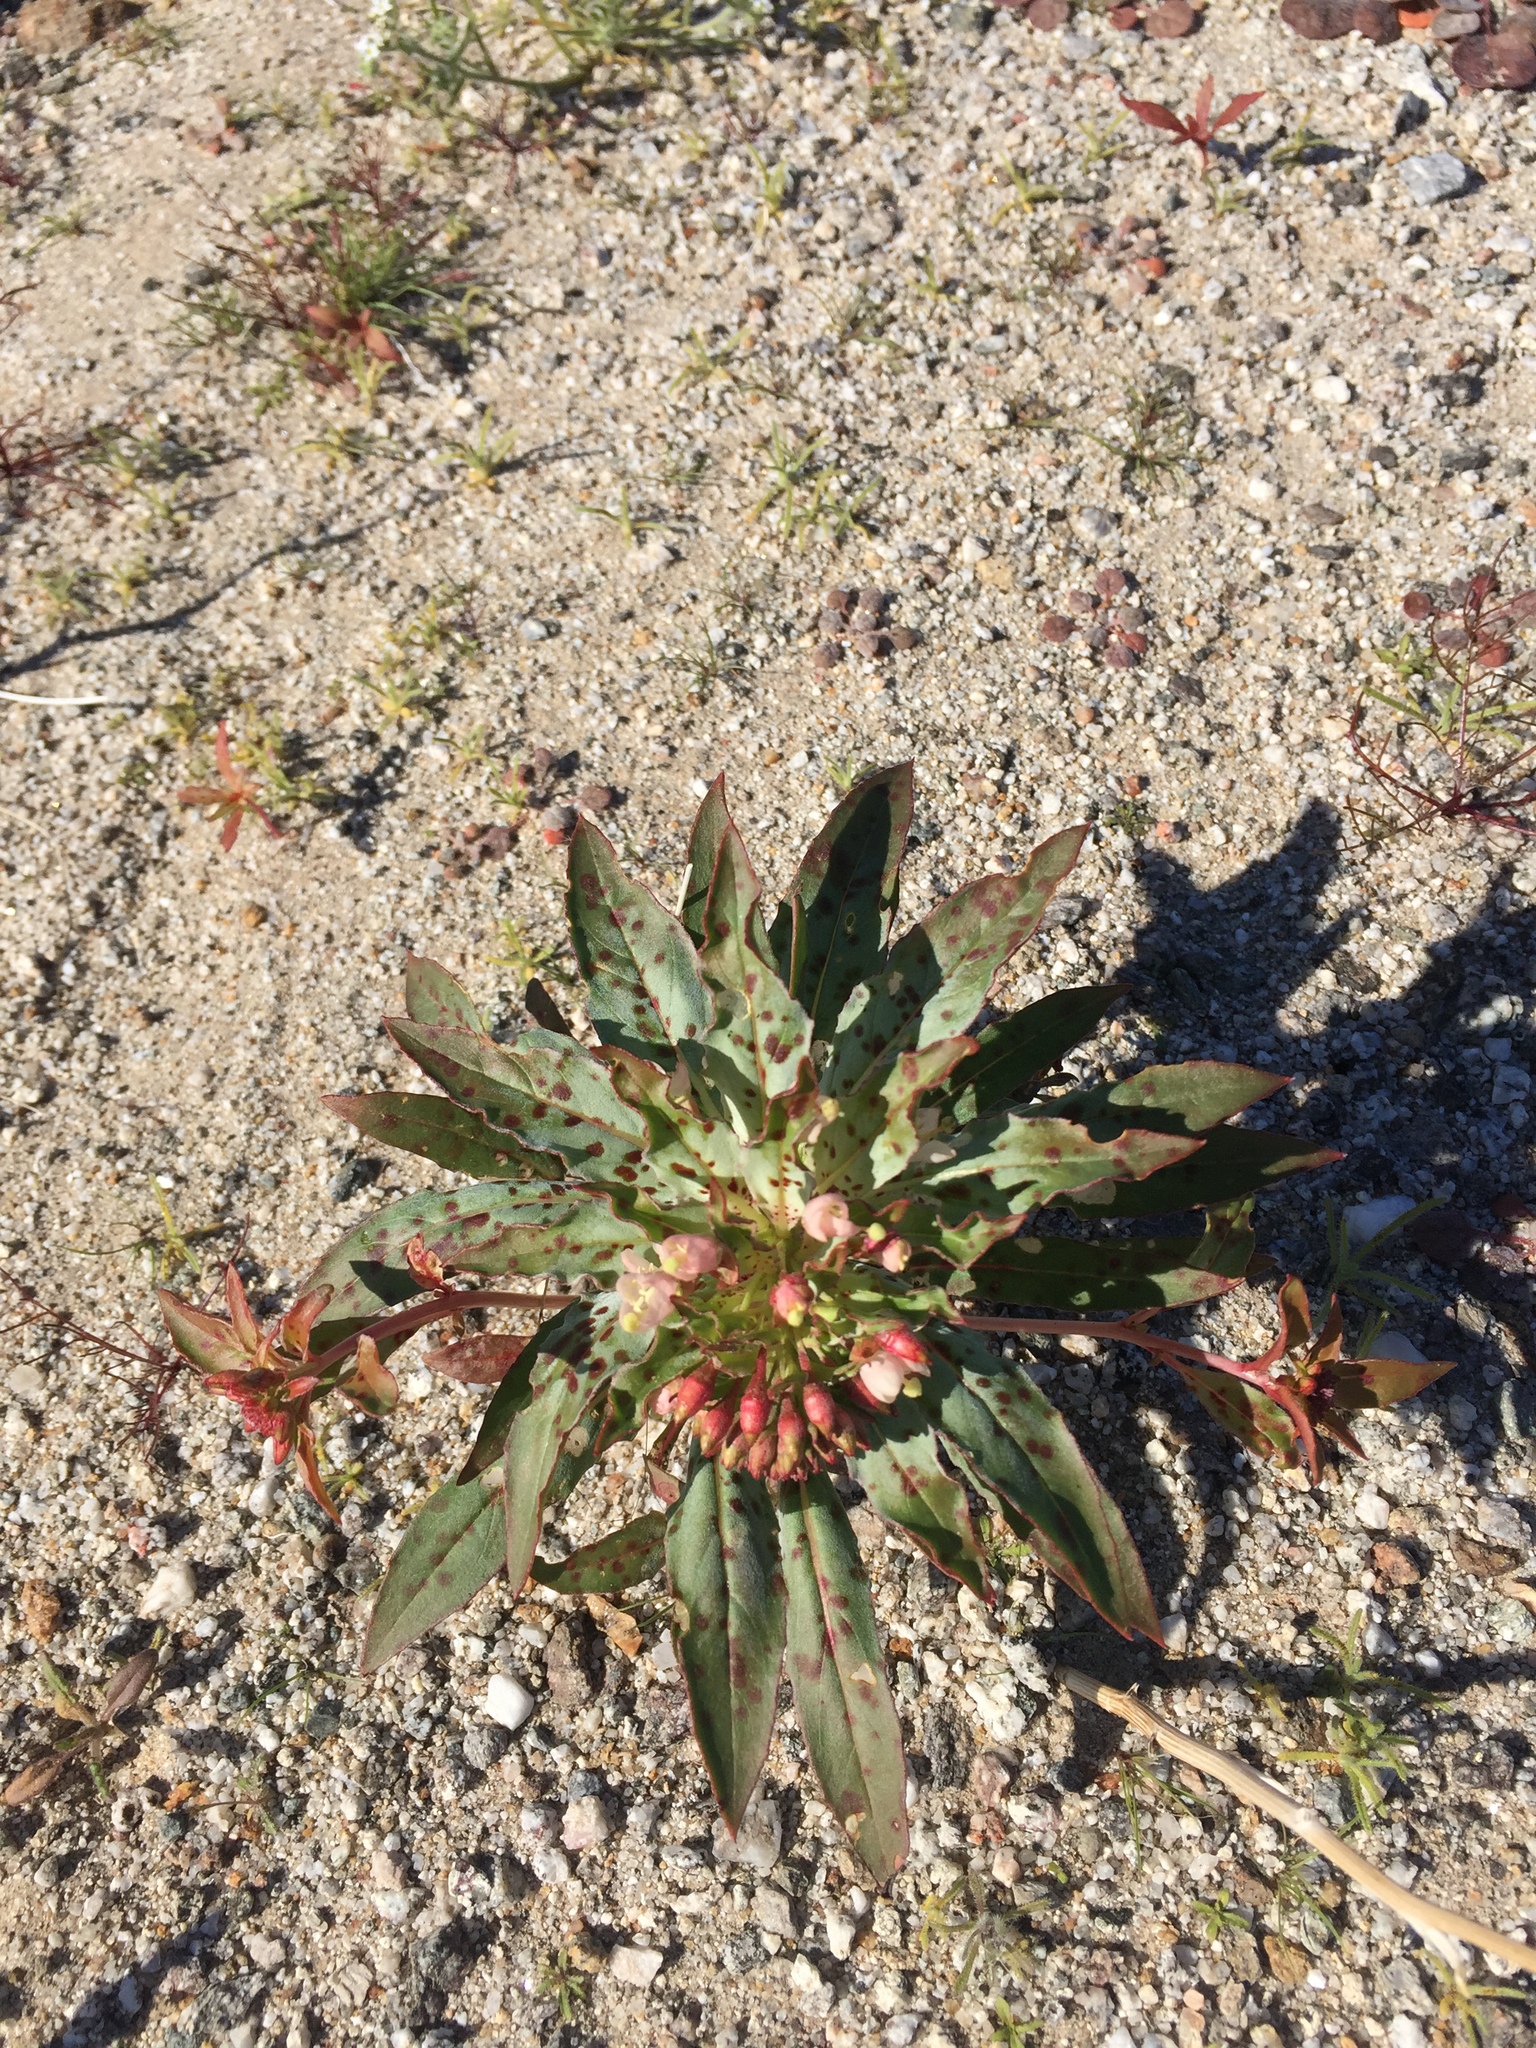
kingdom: Plantae
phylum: Tracheophyta
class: Magnoliopsida
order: Myrtales
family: Onagraceae
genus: Eremothera
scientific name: Eremothera boothii
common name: Booth's evening primrose
